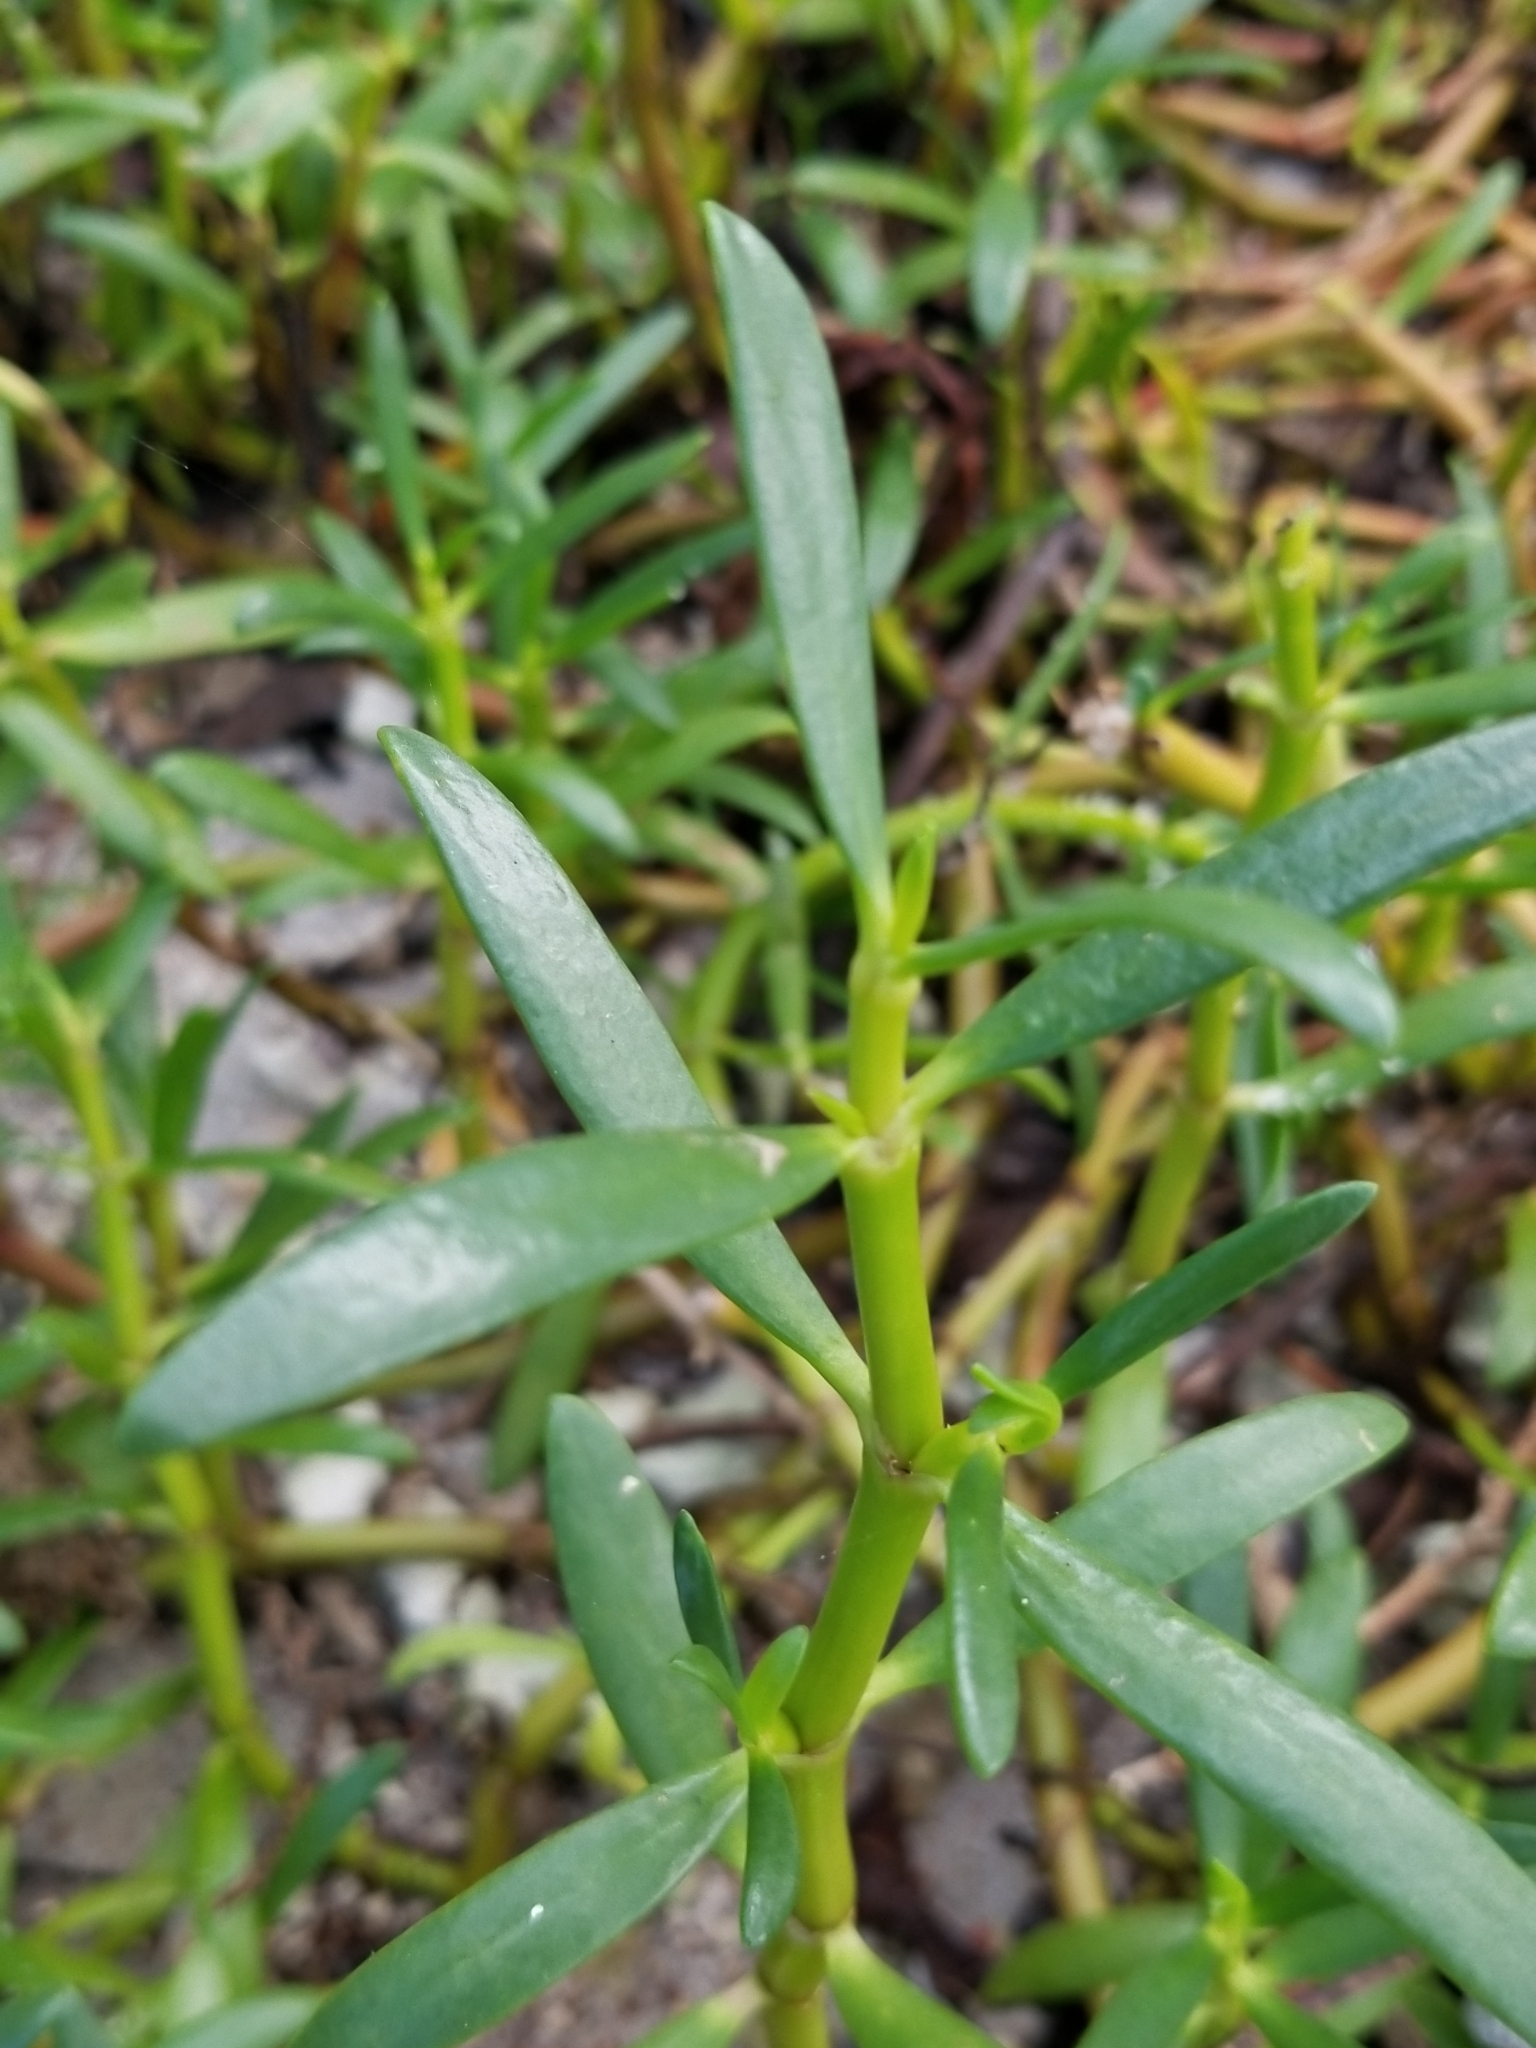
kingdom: Plantae
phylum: Tracheophyta
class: Magnoliopsida
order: Caryophyllales
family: Aizoaceae
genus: Sesuvium
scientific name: Sesuvium portulacastrum
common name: Sea-purslane
